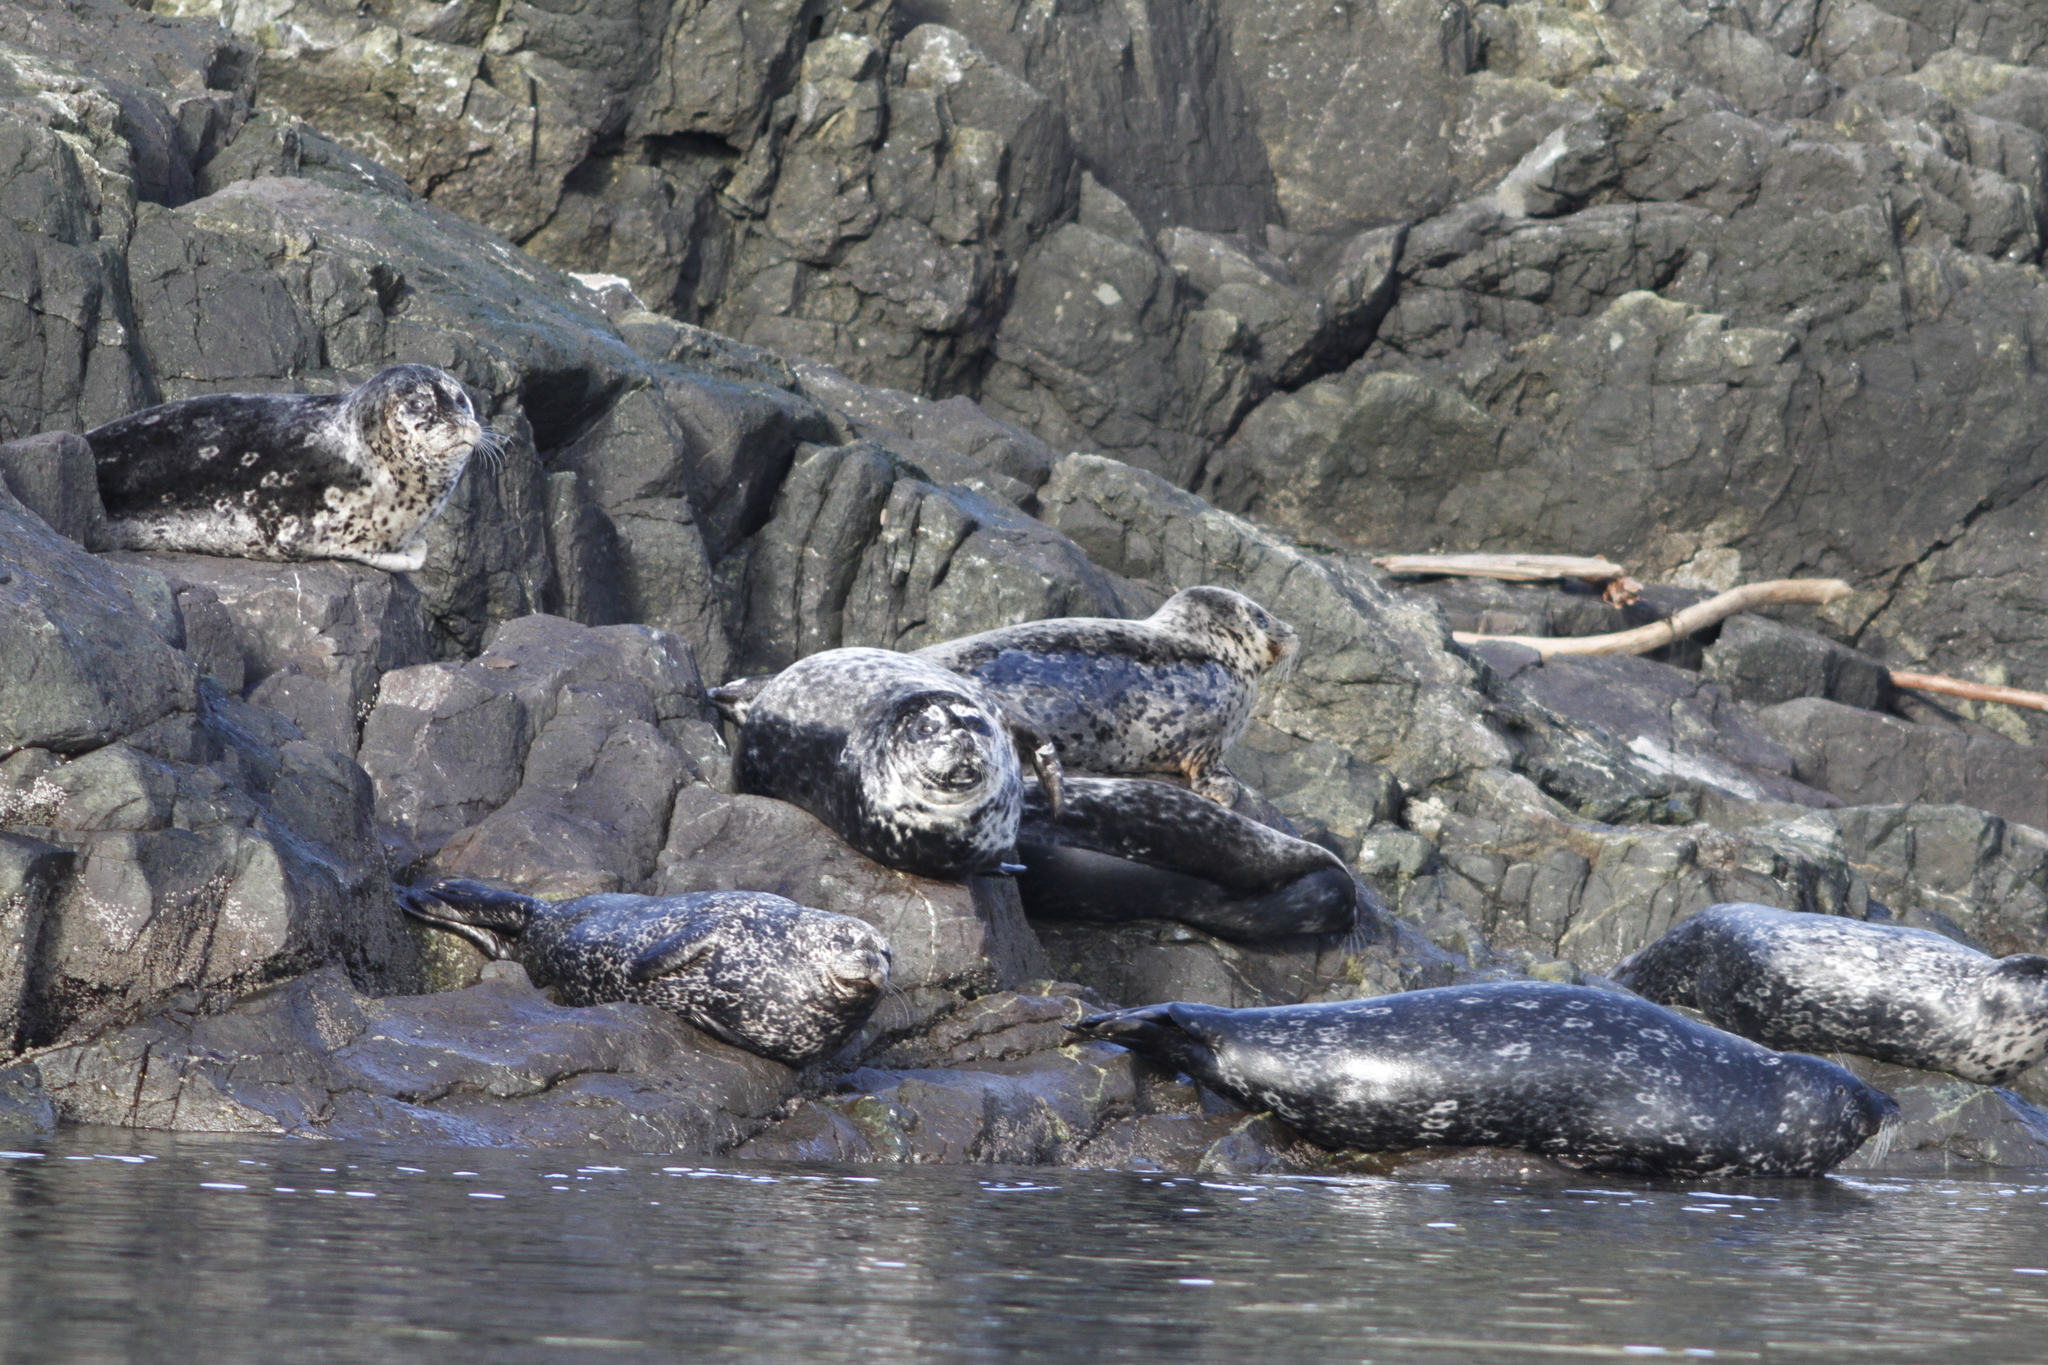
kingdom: Animalia
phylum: Chordata
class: Mammalia
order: Carnivora
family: Phocidae
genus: Phoca
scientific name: Phoca vitulina
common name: Harbor seal
